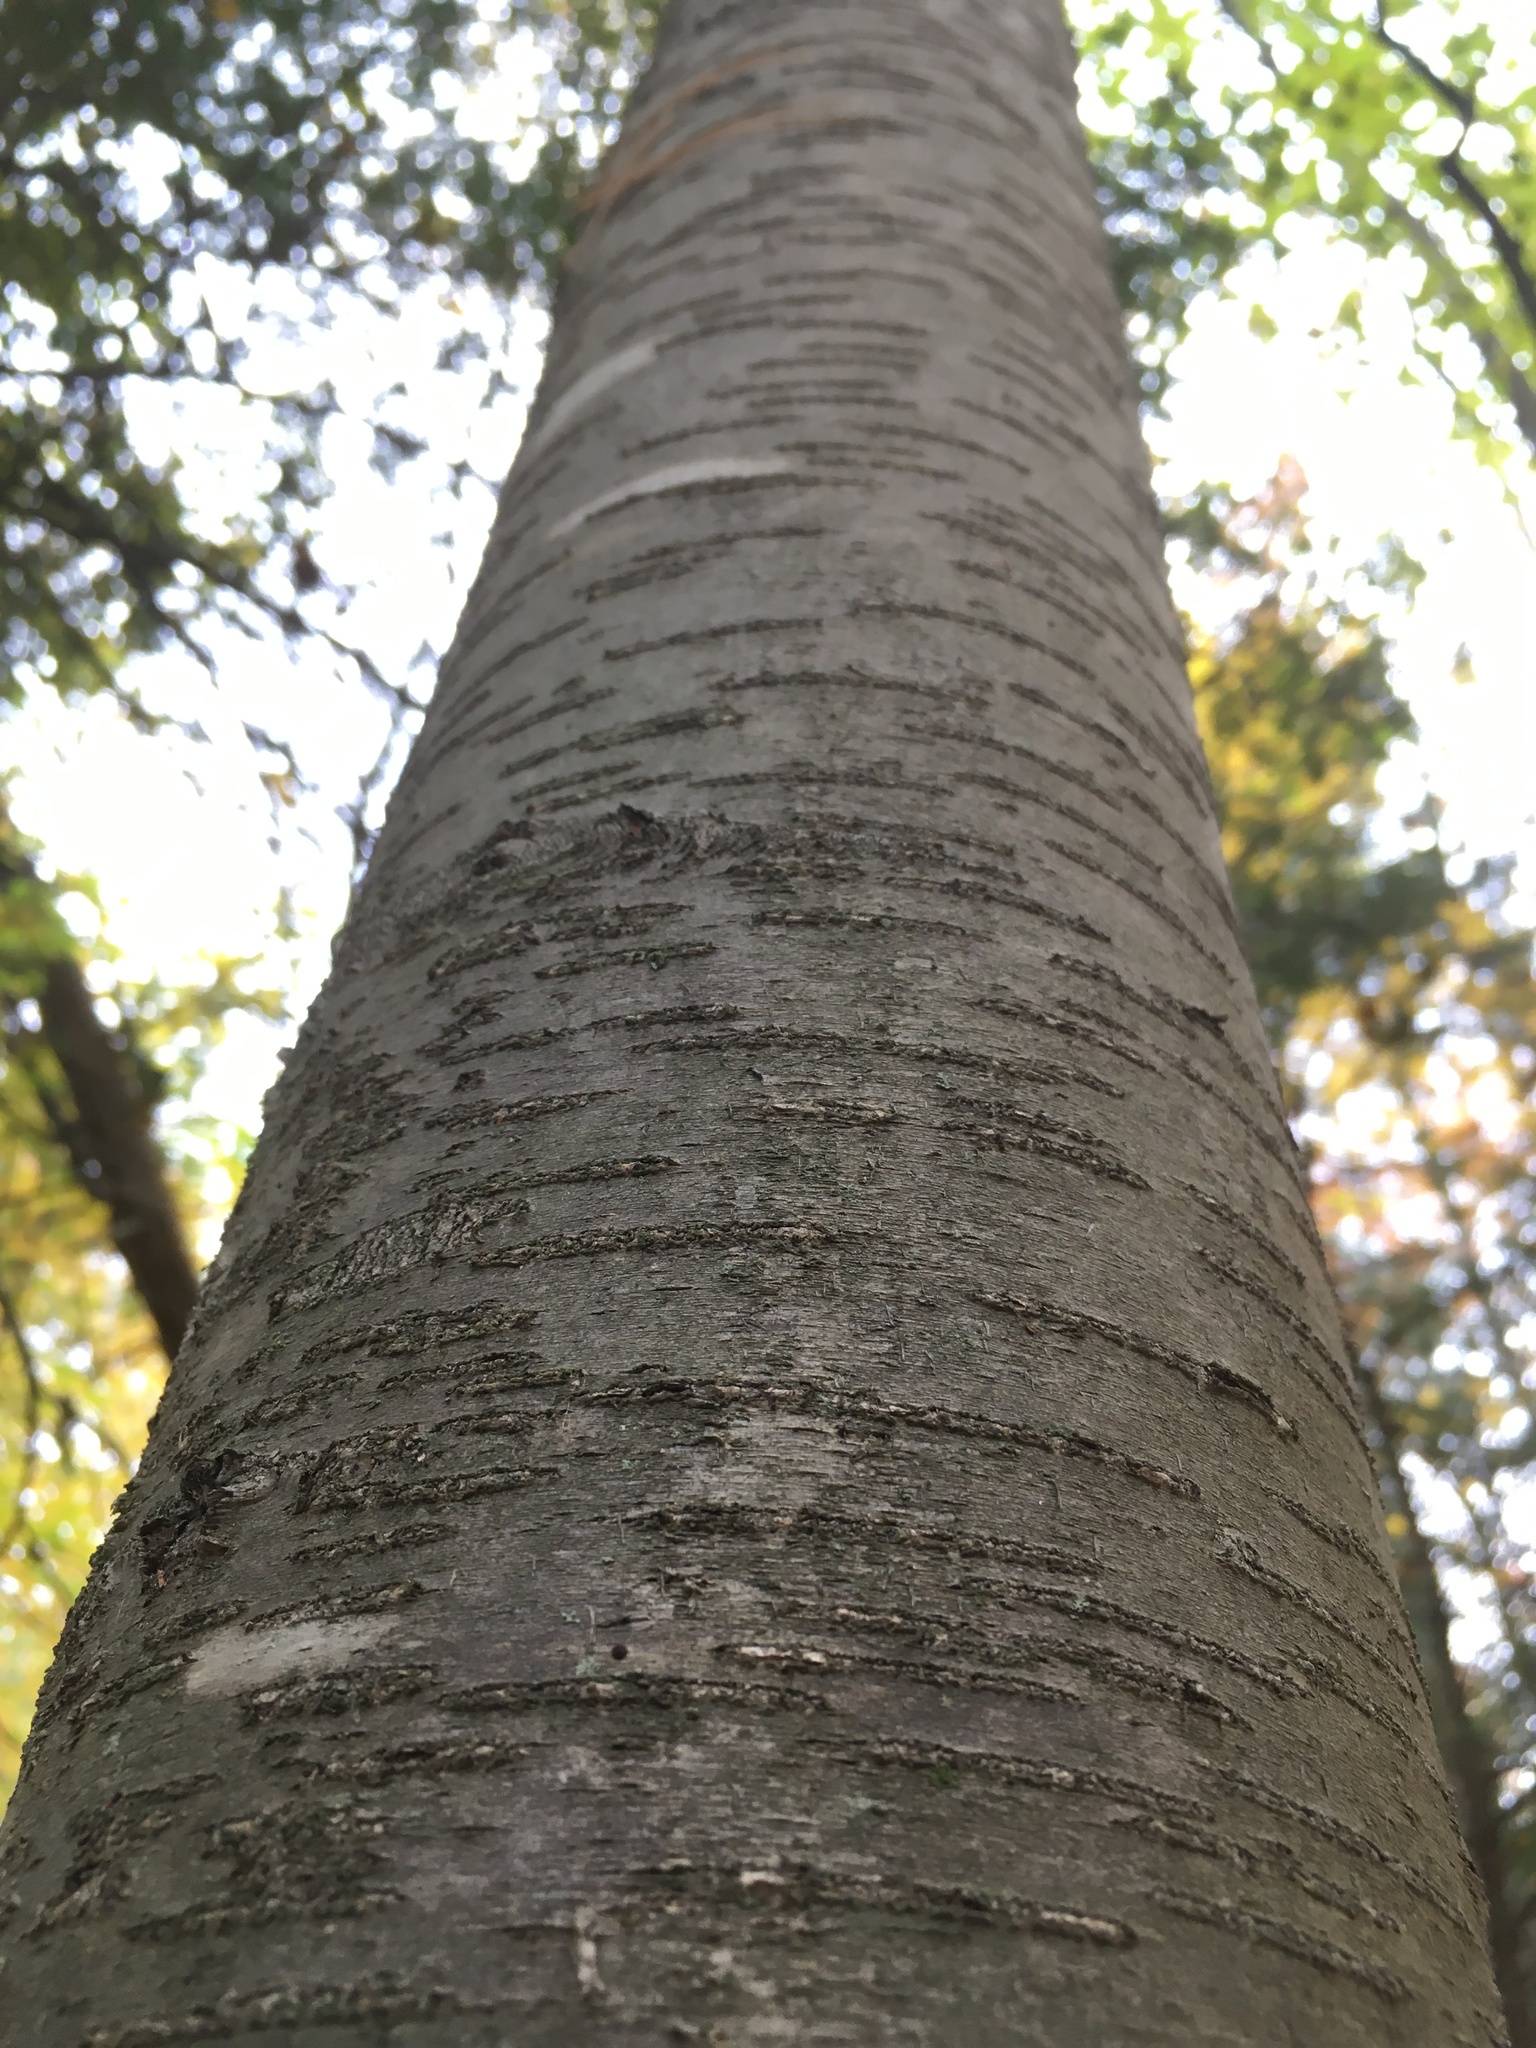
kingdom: Plantae
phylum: Tracheophyta
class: Magnoliopsida
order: Fagales
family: Betulaceae
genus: Betula
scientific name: Betula lenta
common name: Black birch
